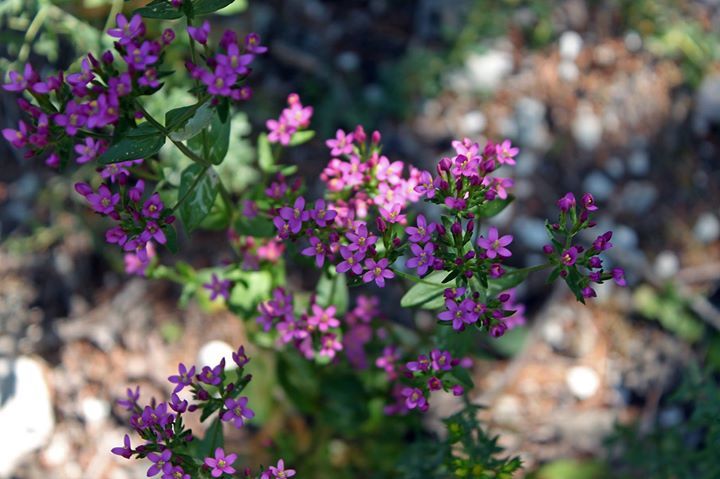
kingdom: Plantae
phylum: Tracheophyta
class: Magnoliopsida
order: Gentianales
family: Gentianaceae
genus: Centaurium
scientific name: Centaurium erythraea
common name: Common centaury
